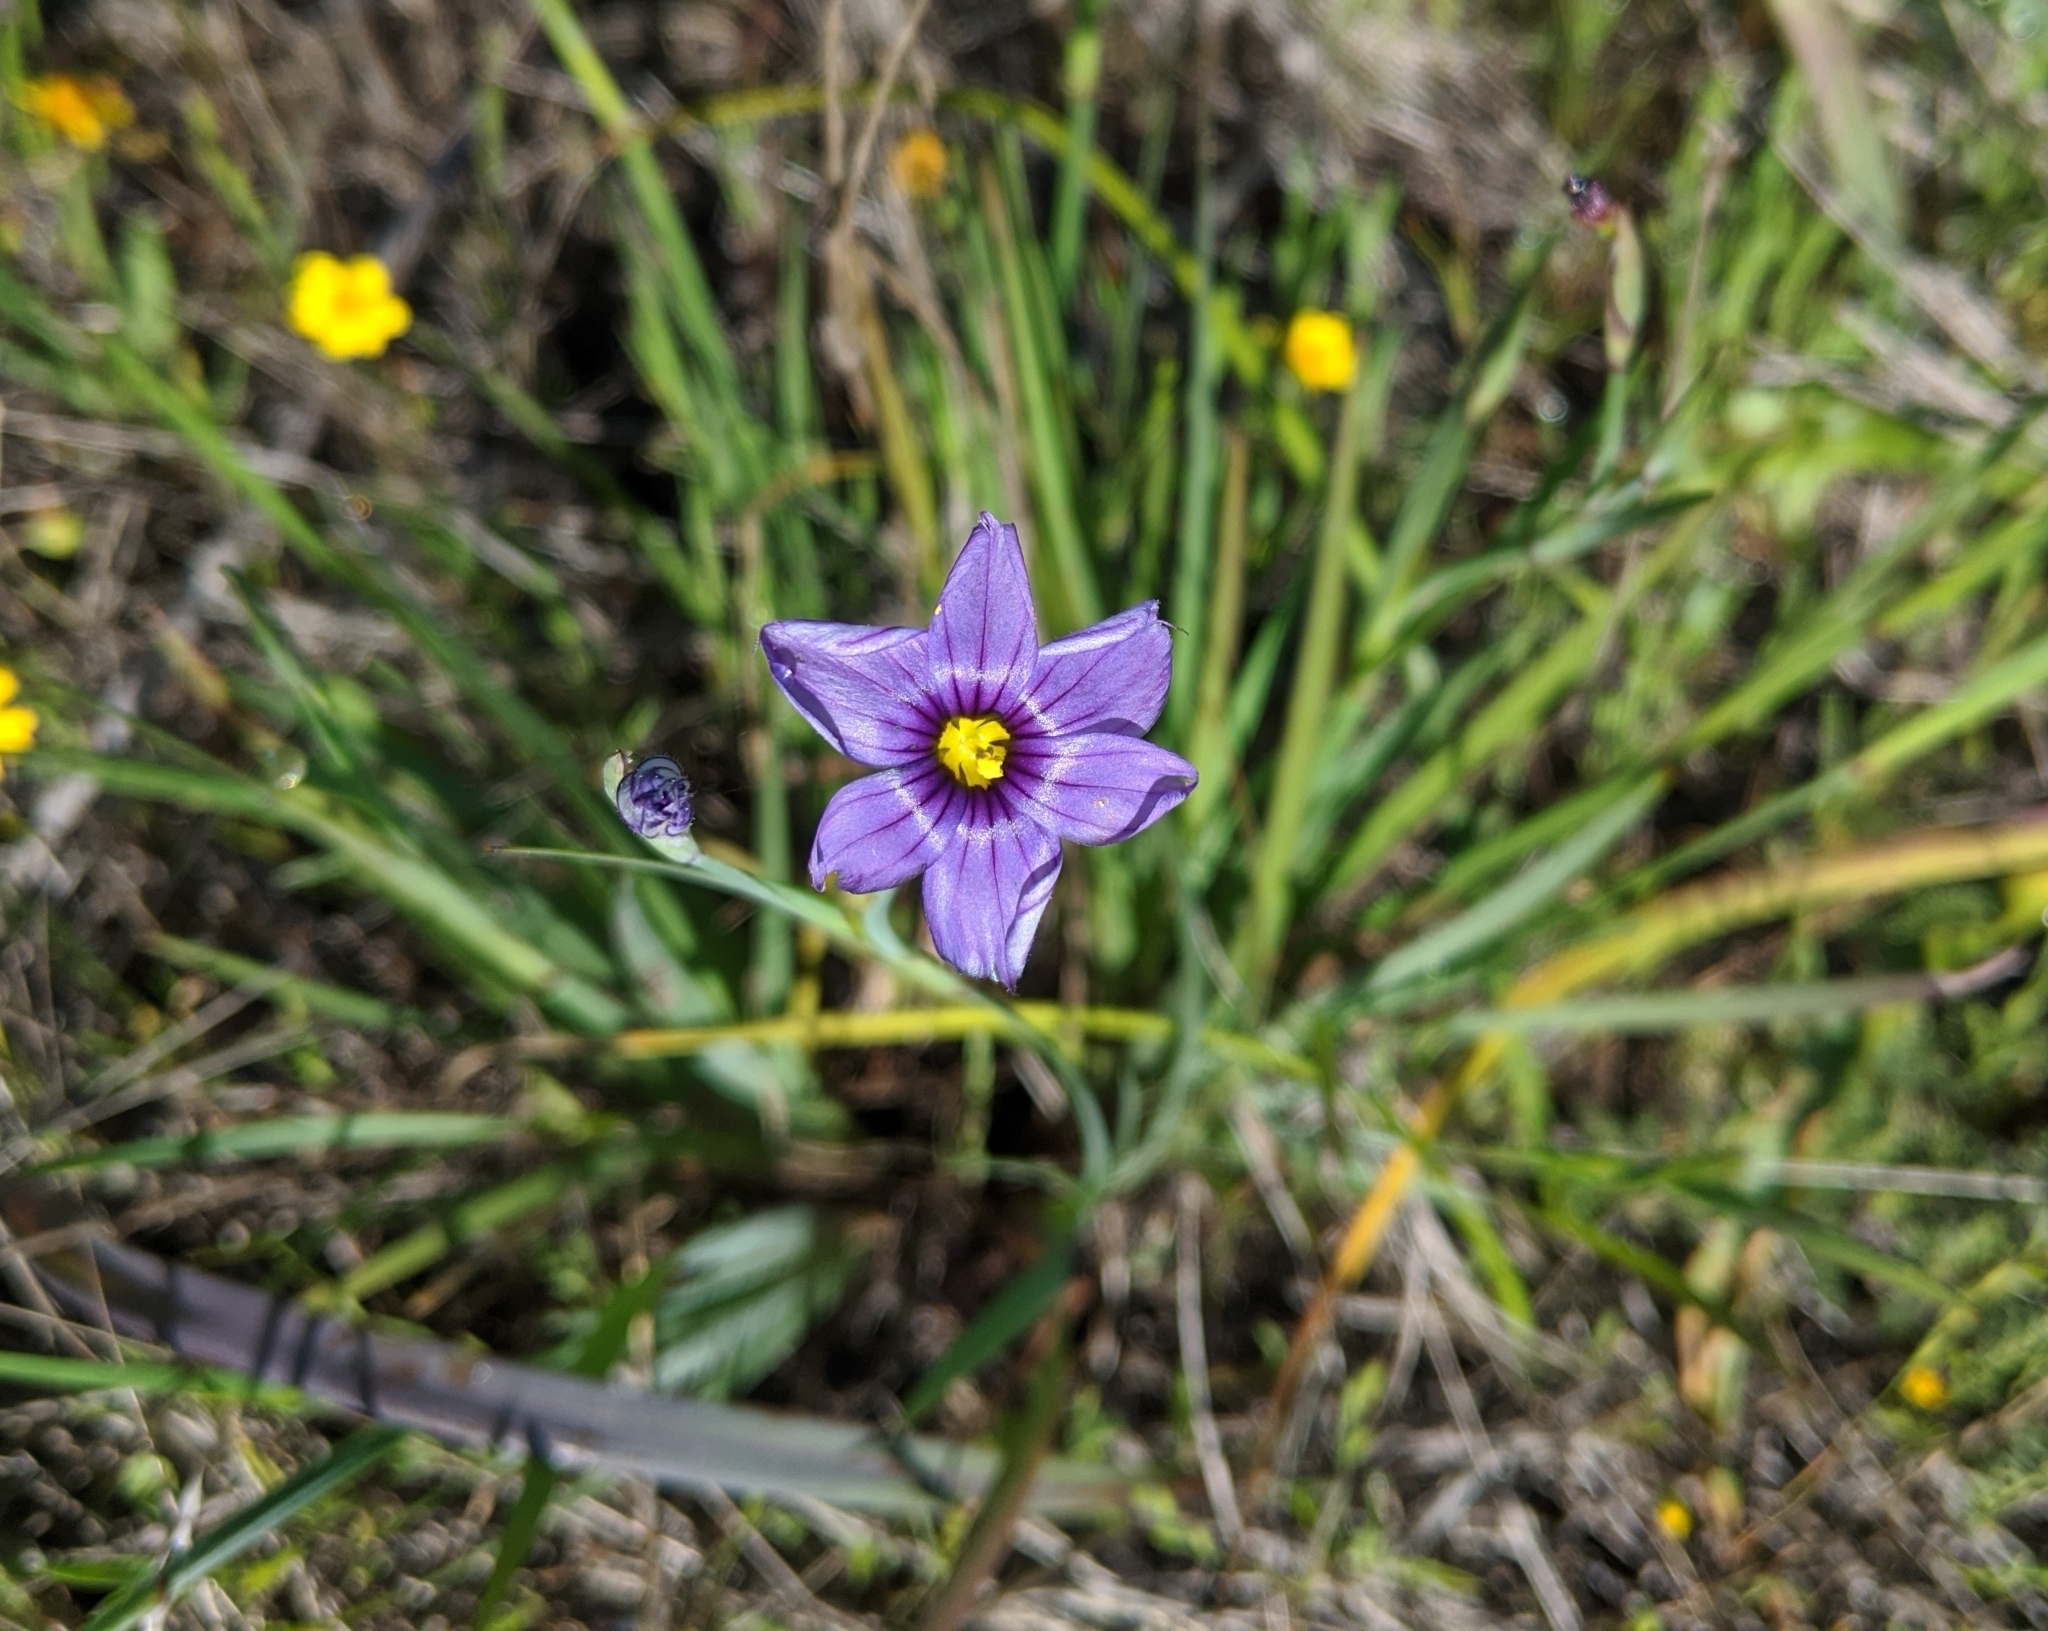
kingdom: Plantae
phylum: Tracheophyta
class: Liliopsida
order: Asparagales
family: Iridaceae
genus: Sisyrinchium
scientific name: Sisyrinchium bellum
